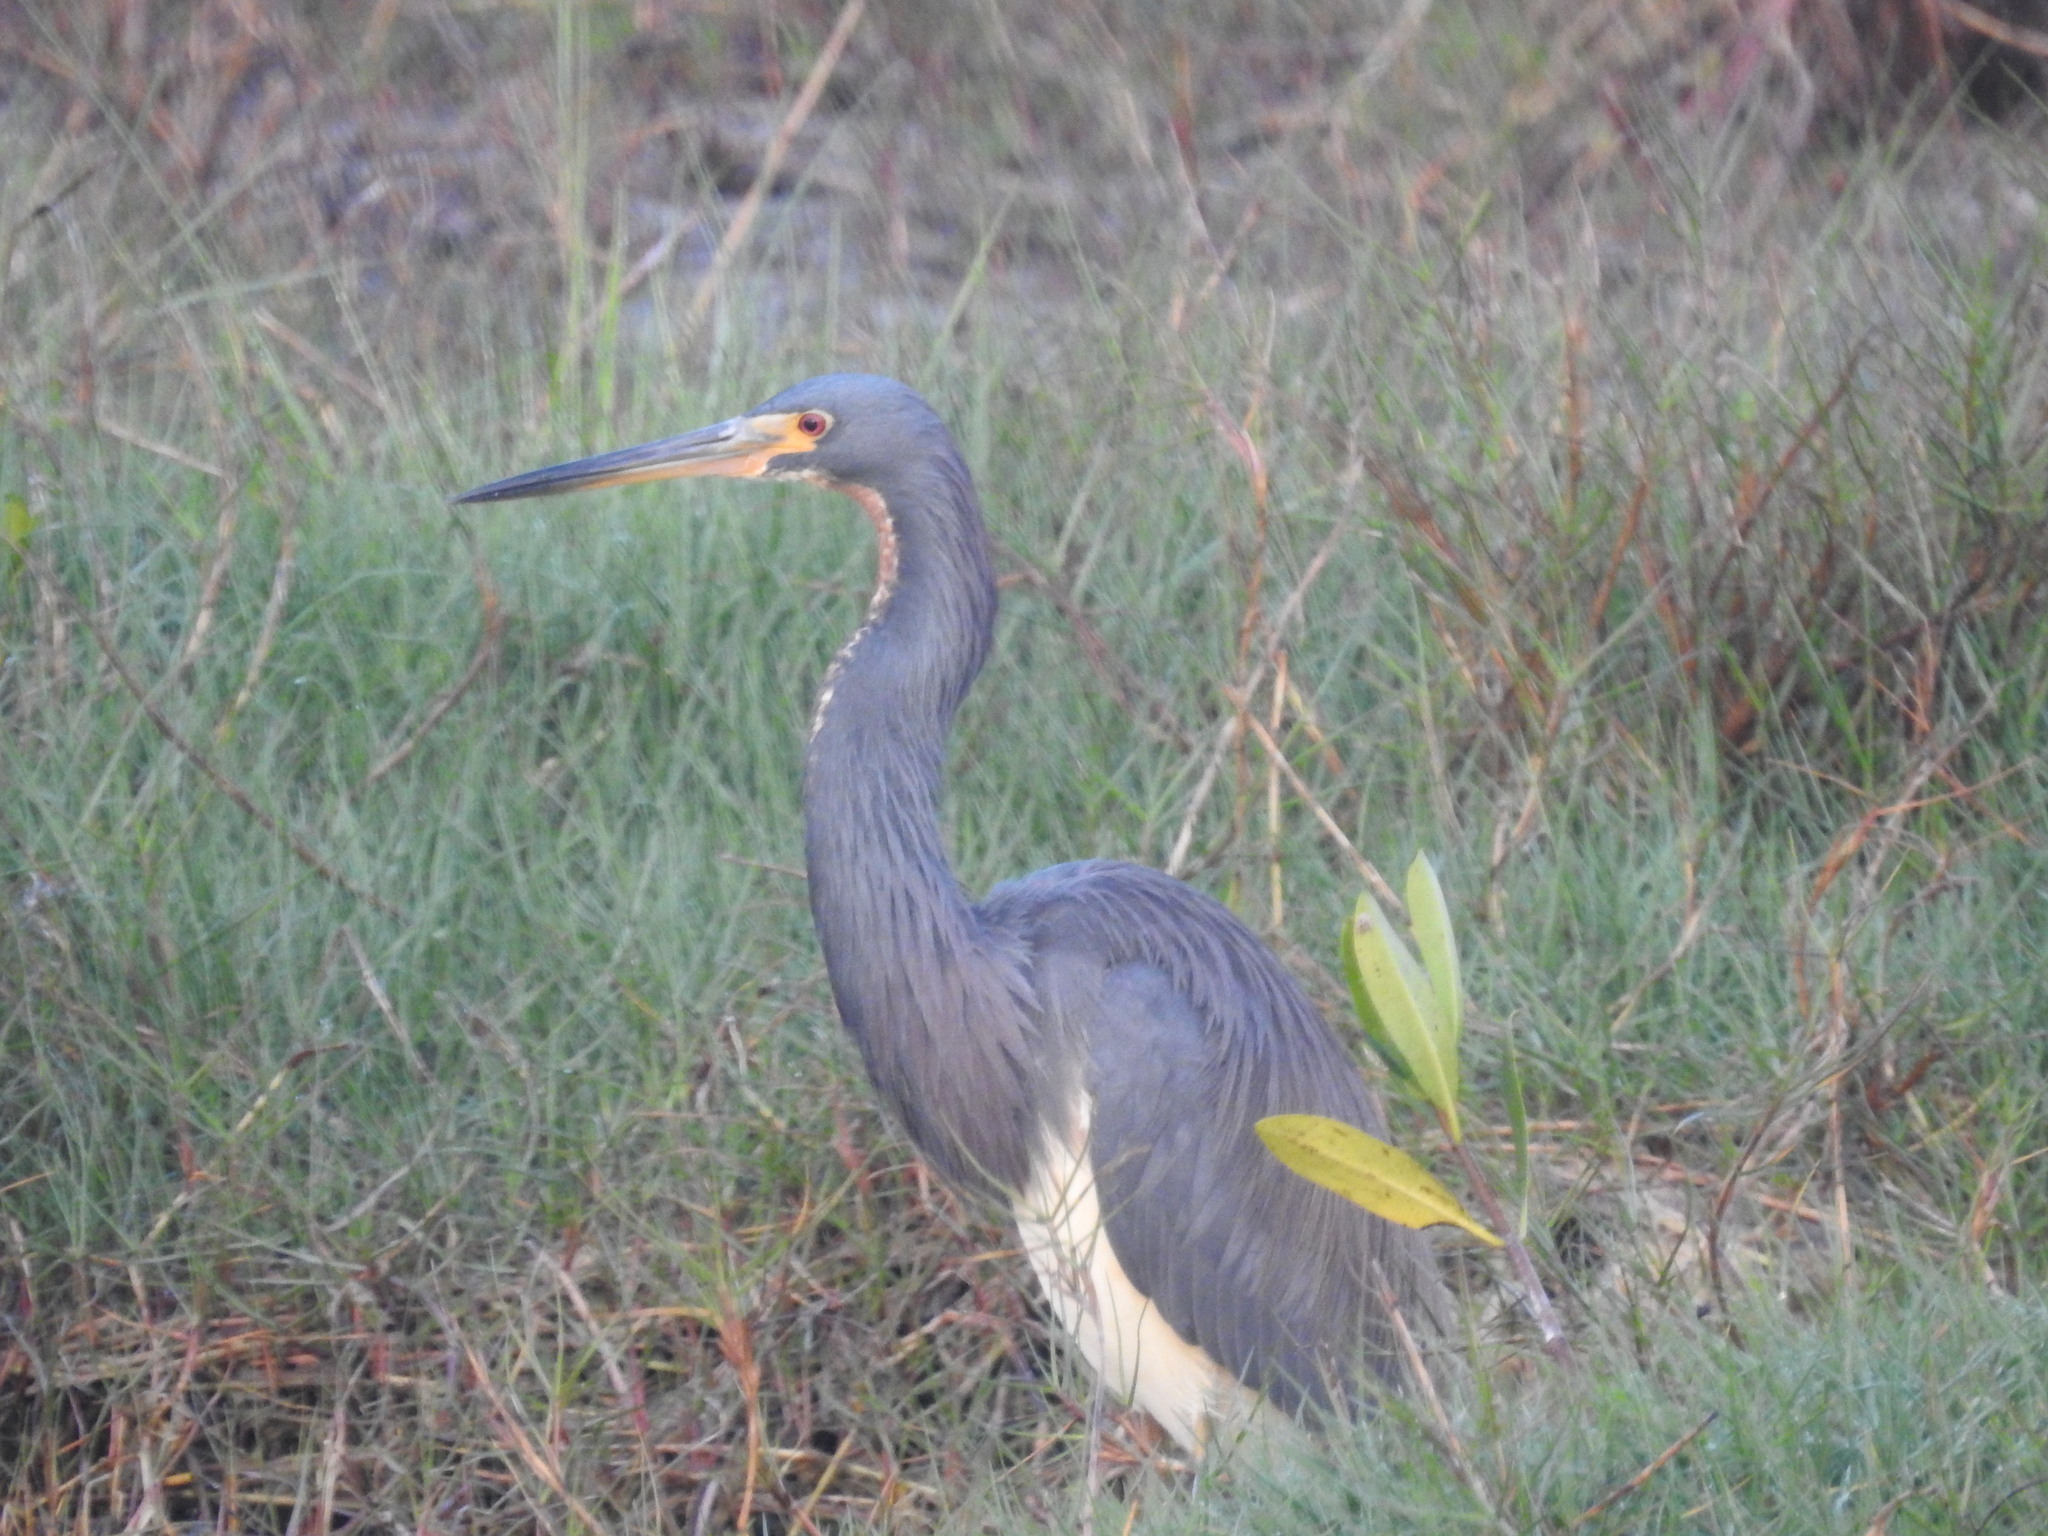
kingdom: Animalia
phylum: Chordata
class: Aves
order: Pelecaniformes
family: Ardeidae
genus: Egretta
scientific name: Egretta tricolor
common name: Tricolored heron
